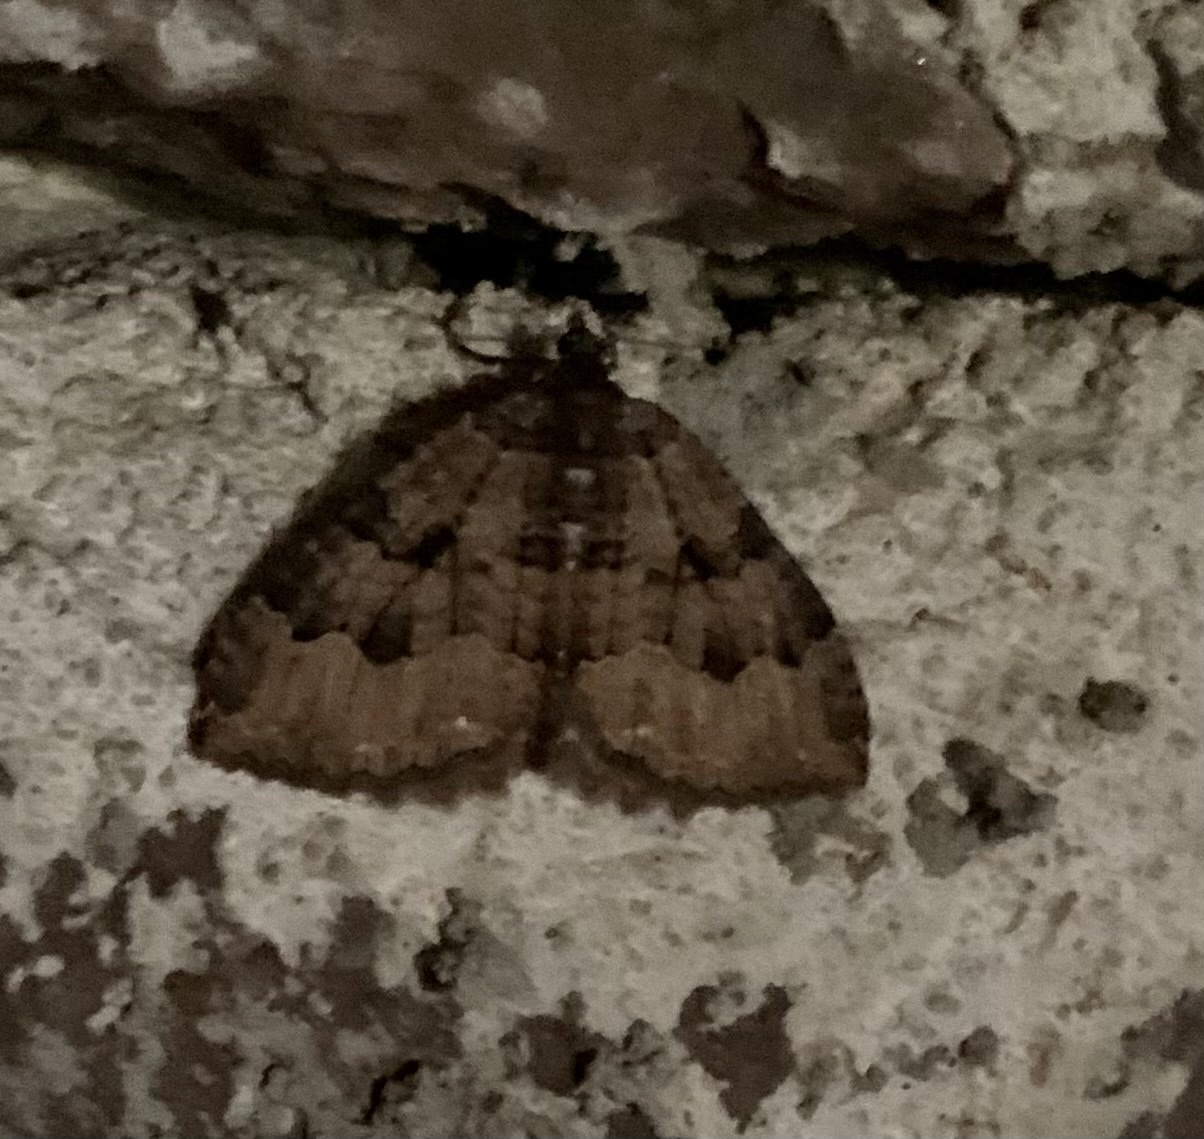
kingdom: Animalia
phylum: Arthropoda
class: Insecta
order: Lepidoptera
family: Geometridae
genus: Triphosa
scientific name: Triphosa dubitata
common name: Tissue
